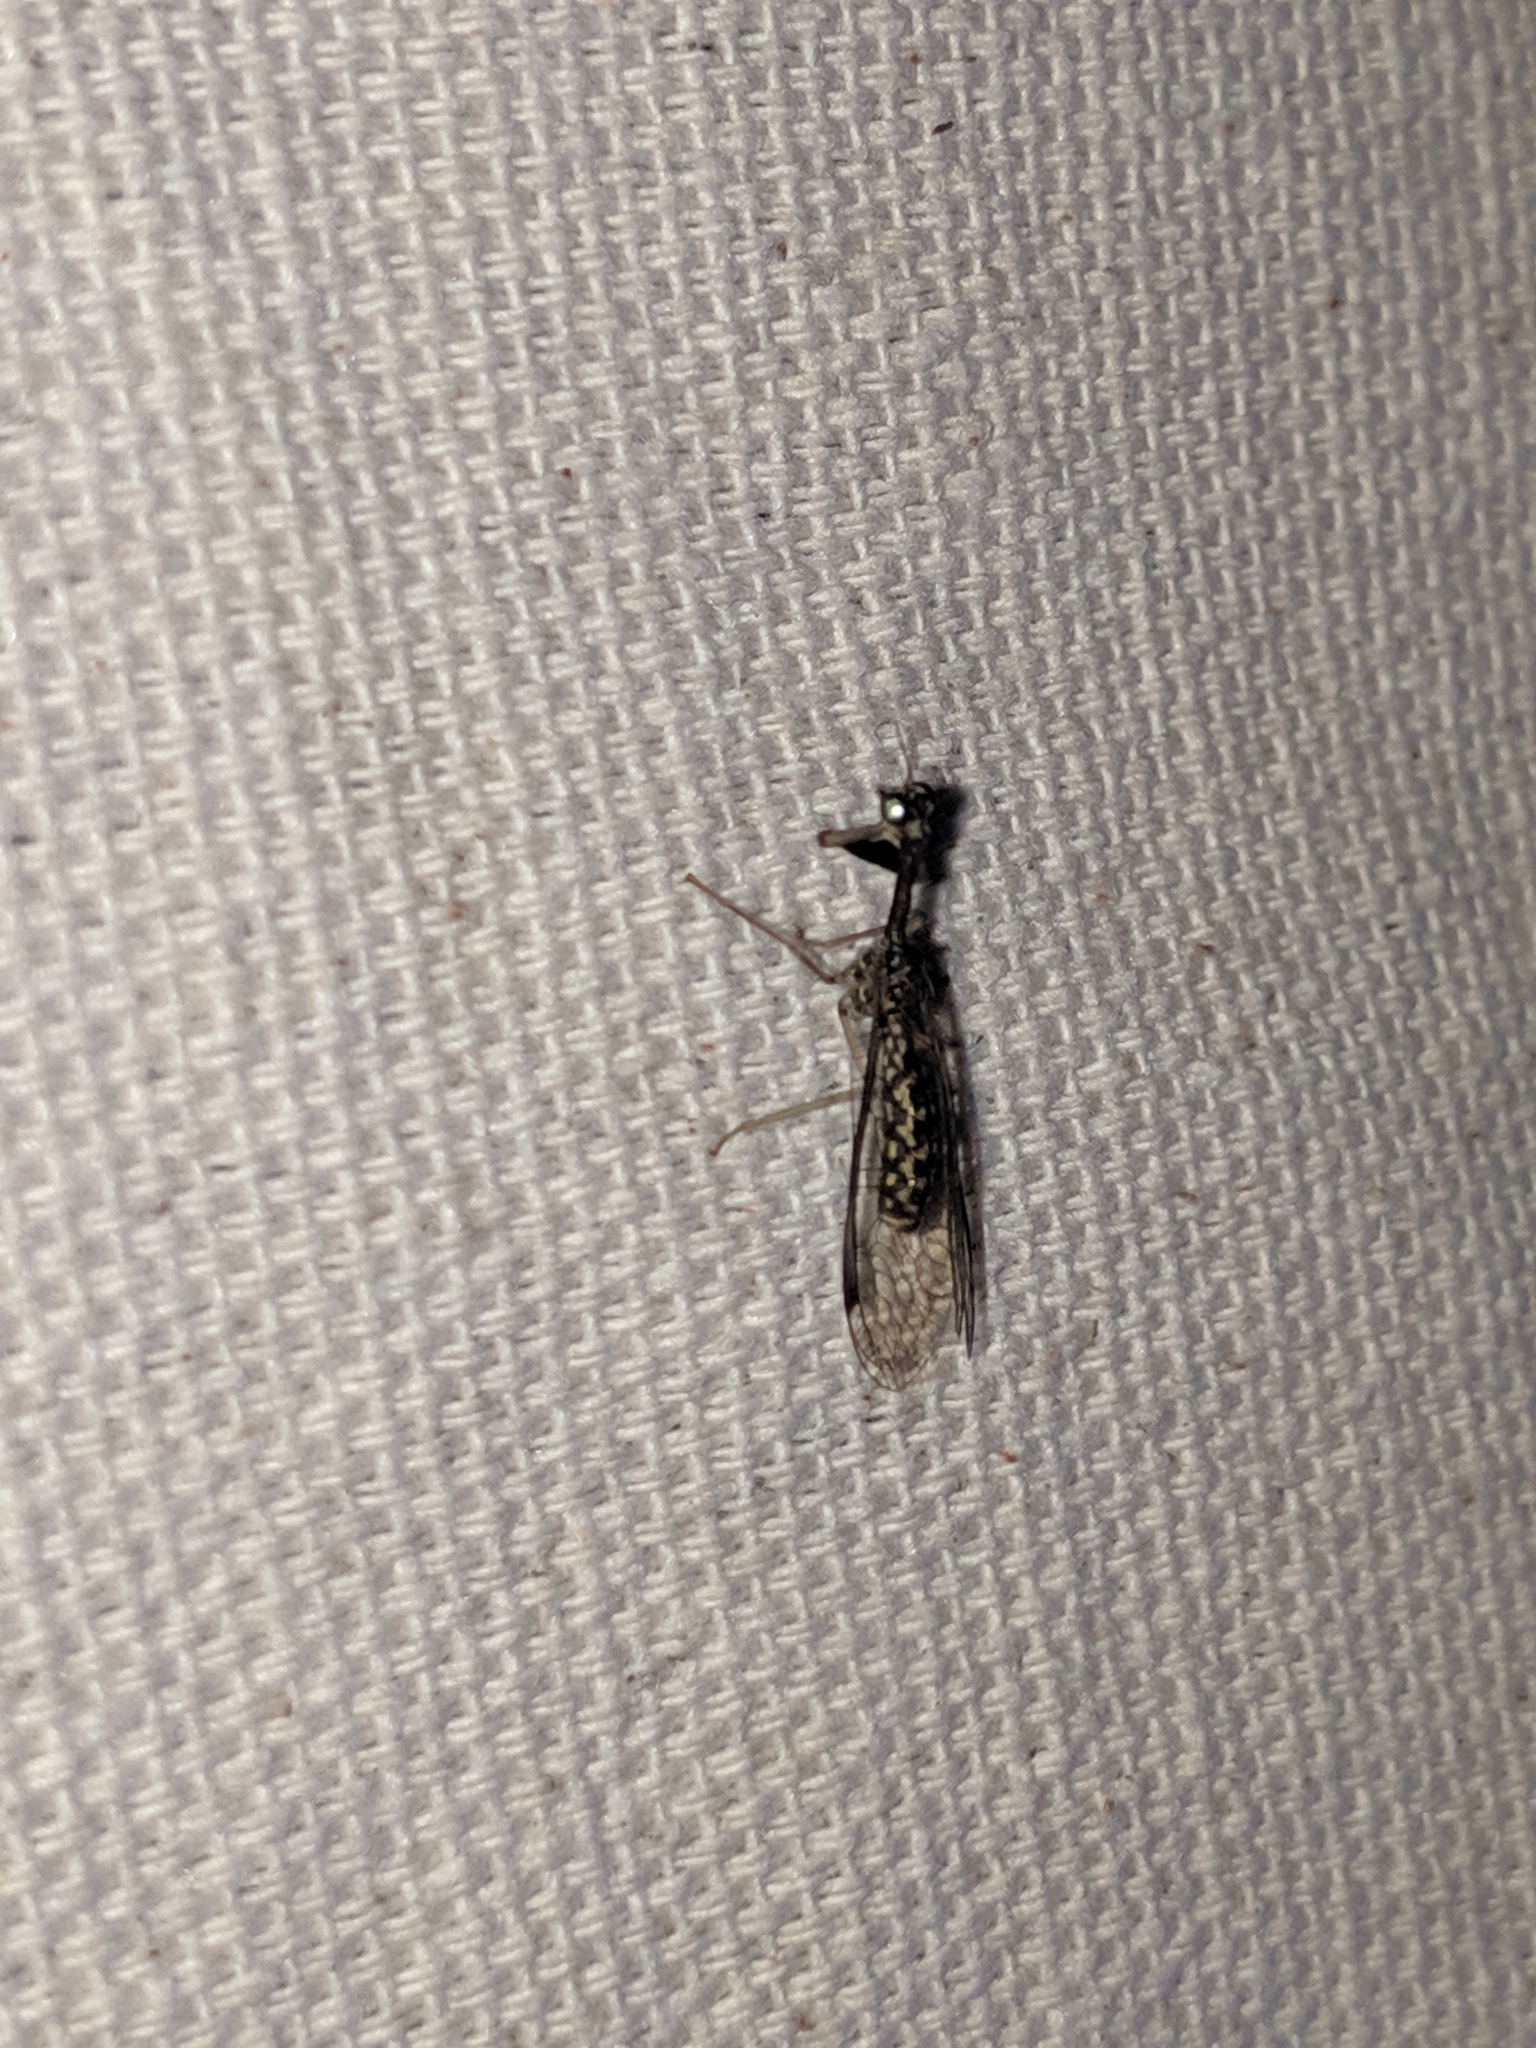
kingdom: Animalia
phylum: Arthropoda
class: Insecta
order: Neuroptera
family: Mantispidae
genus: Dicromantispa
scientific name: Dicromantispa sayi
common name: Say's mantidfly
